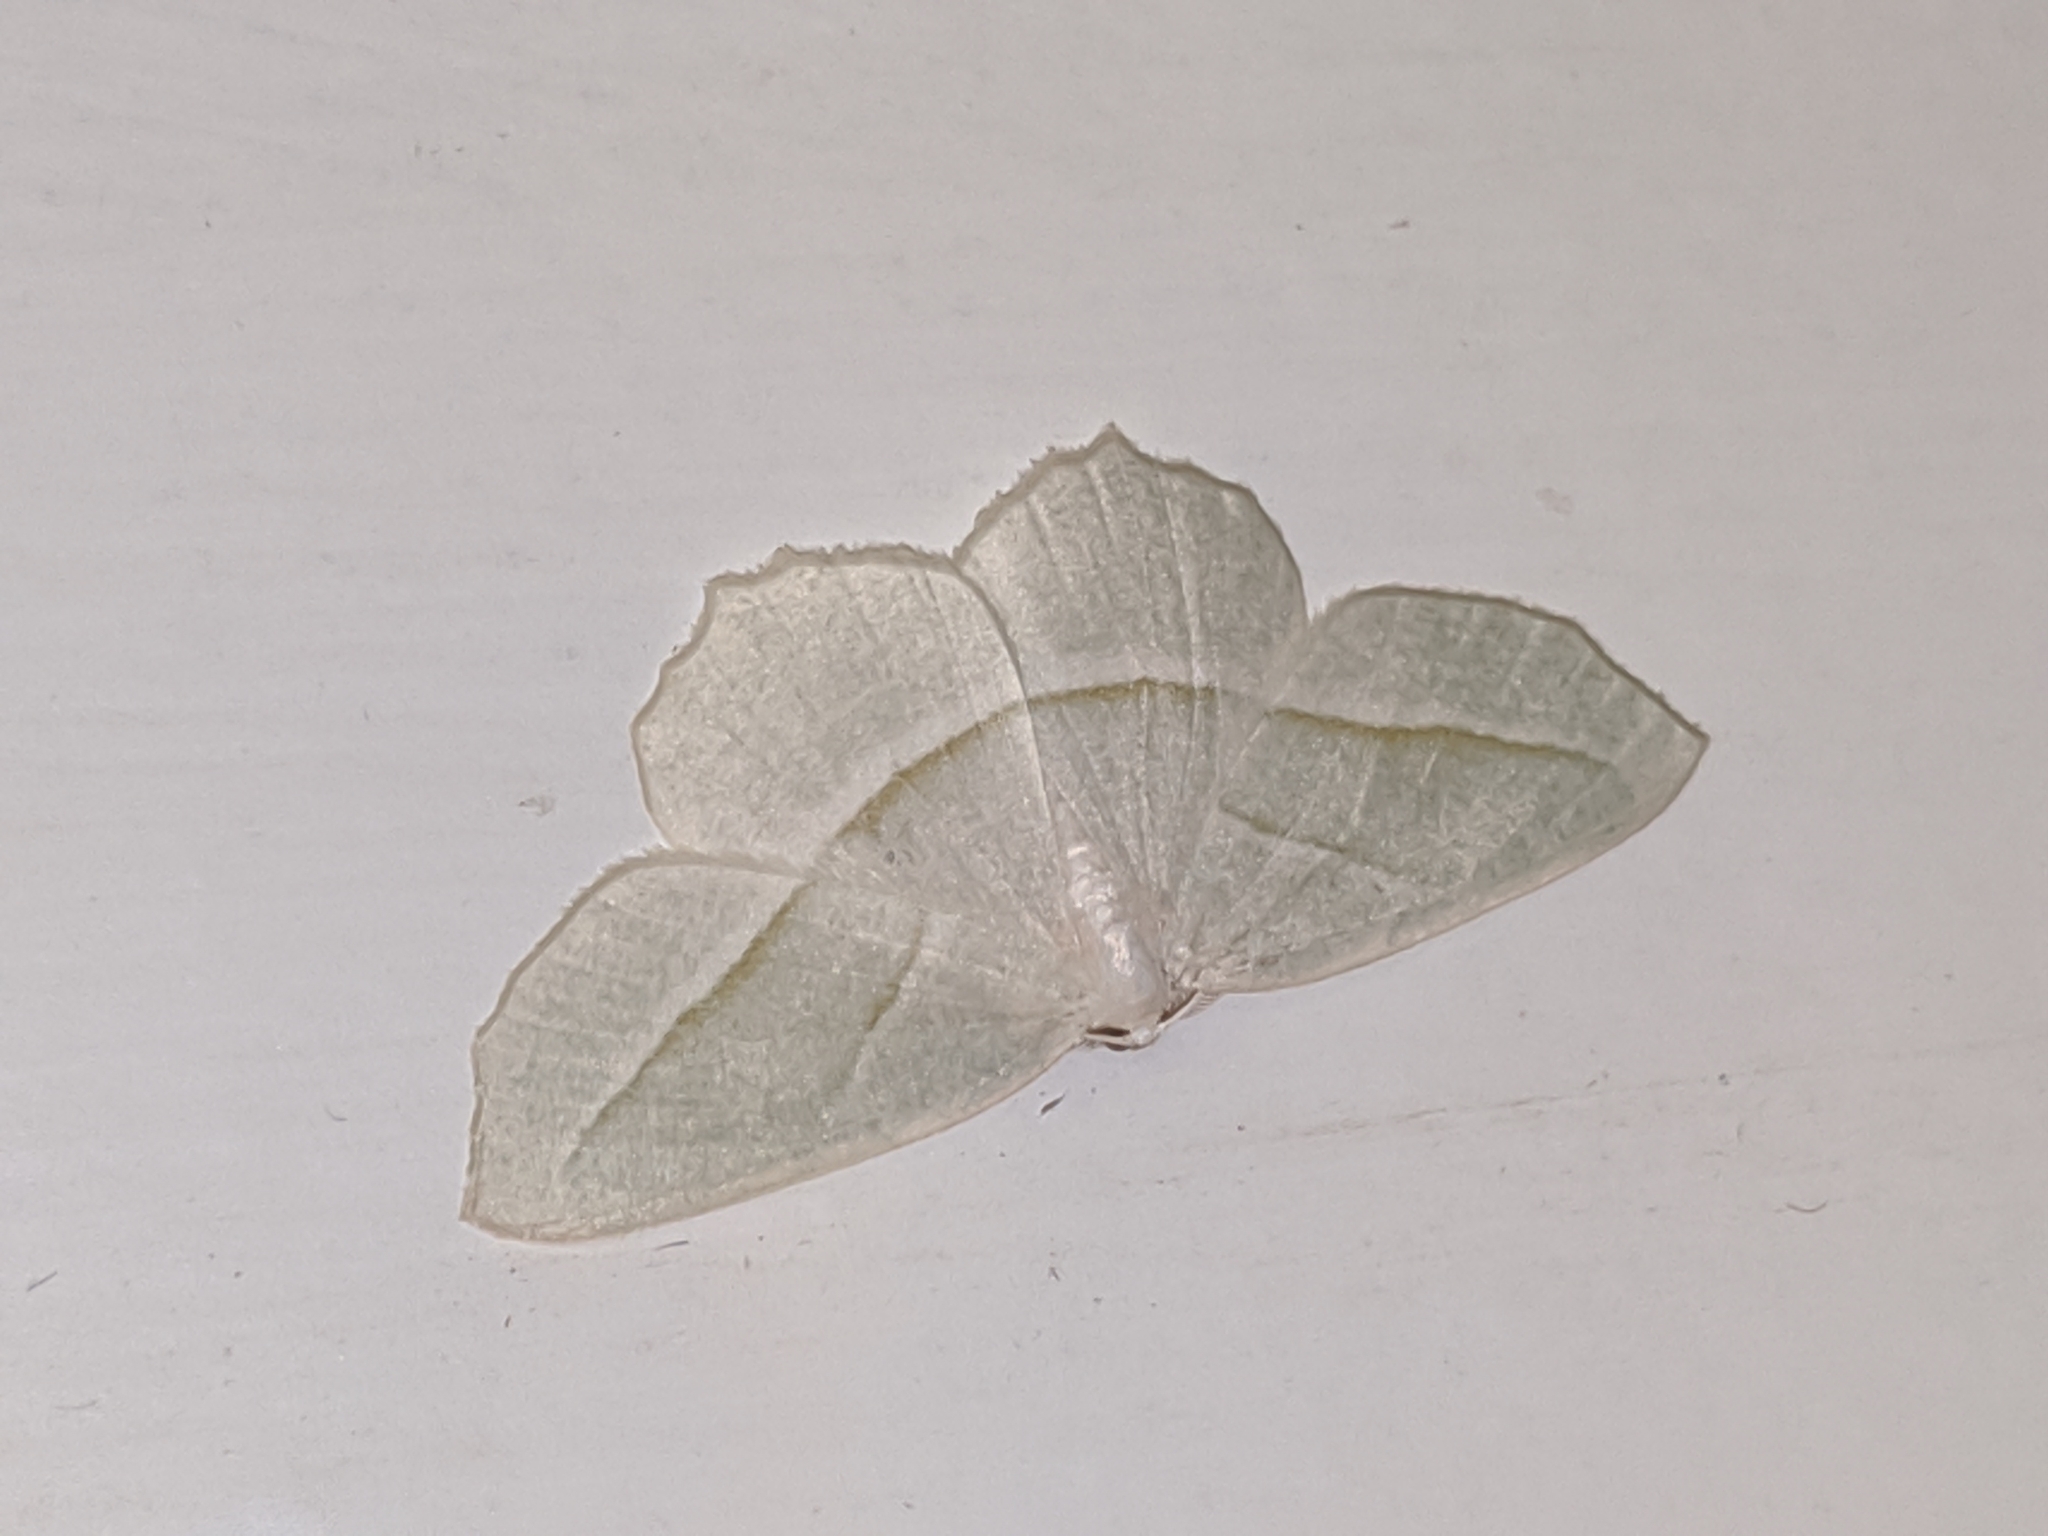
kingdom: Animalia
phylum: Arthropoda
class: Insecta
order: Lepidoptera
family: Geometridae
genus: Campaea
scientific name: Campaea perlata
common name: Fringed looper
